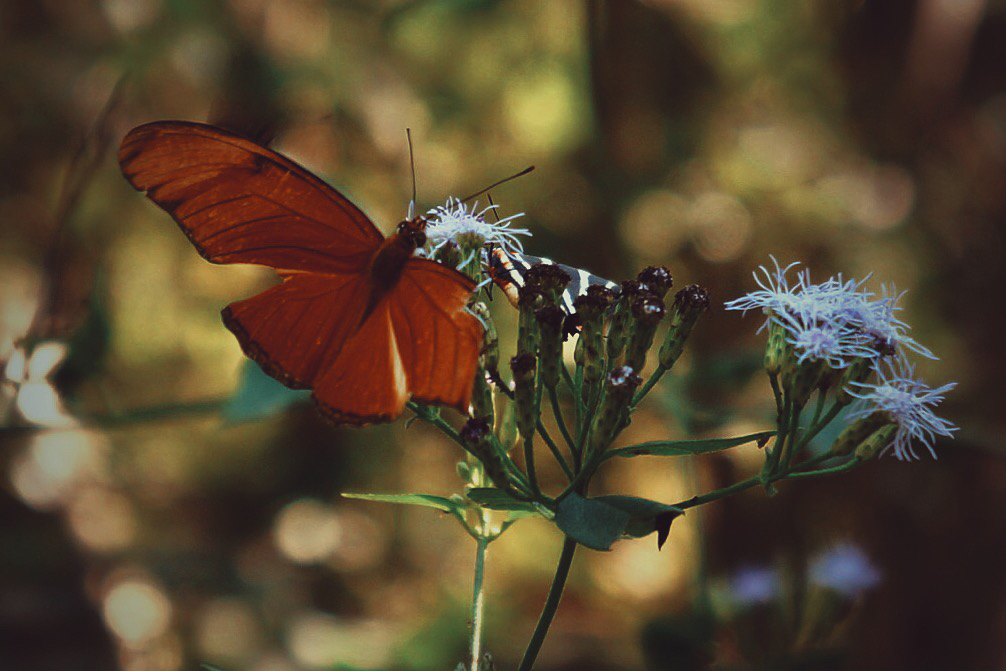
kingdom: Animalia
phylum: Arthropoda
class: Insecta
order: Lepidoptera
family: Nymphalidae
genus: Dryas
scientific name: Dryas iulia
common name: Flambeau
